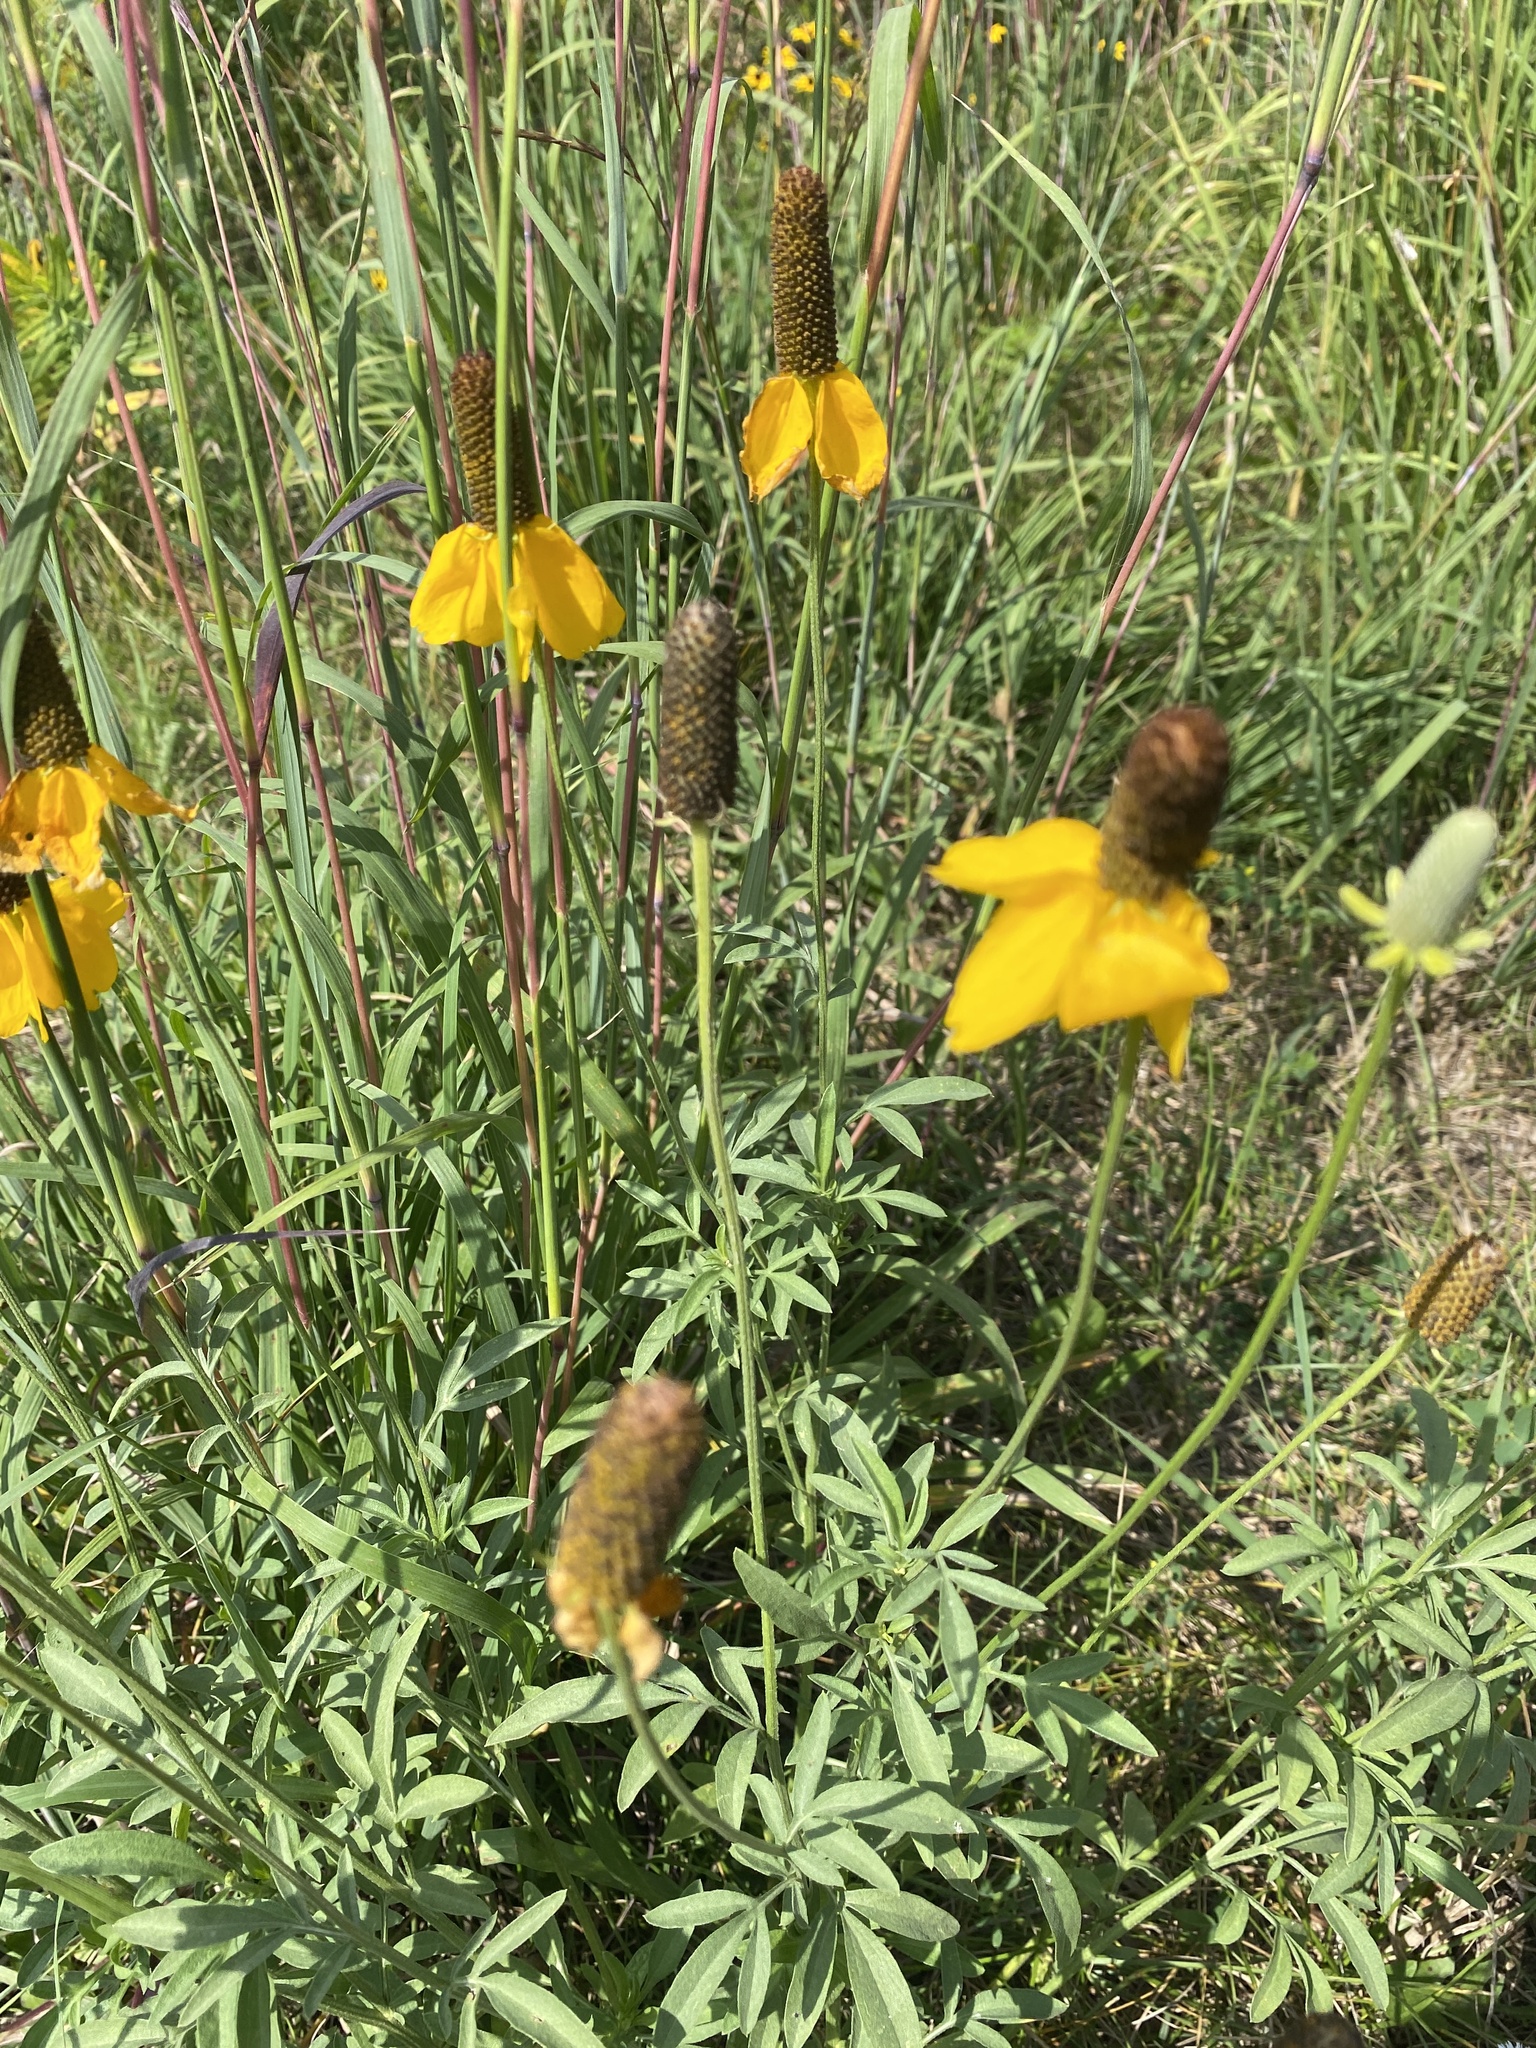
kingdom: Plantae
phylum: Tracheophyta
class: Magnoliopsida
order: Asterales
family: Asteraceae
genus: Ratibida
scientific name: Ratibida columnifera
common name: Prairie coneflower
